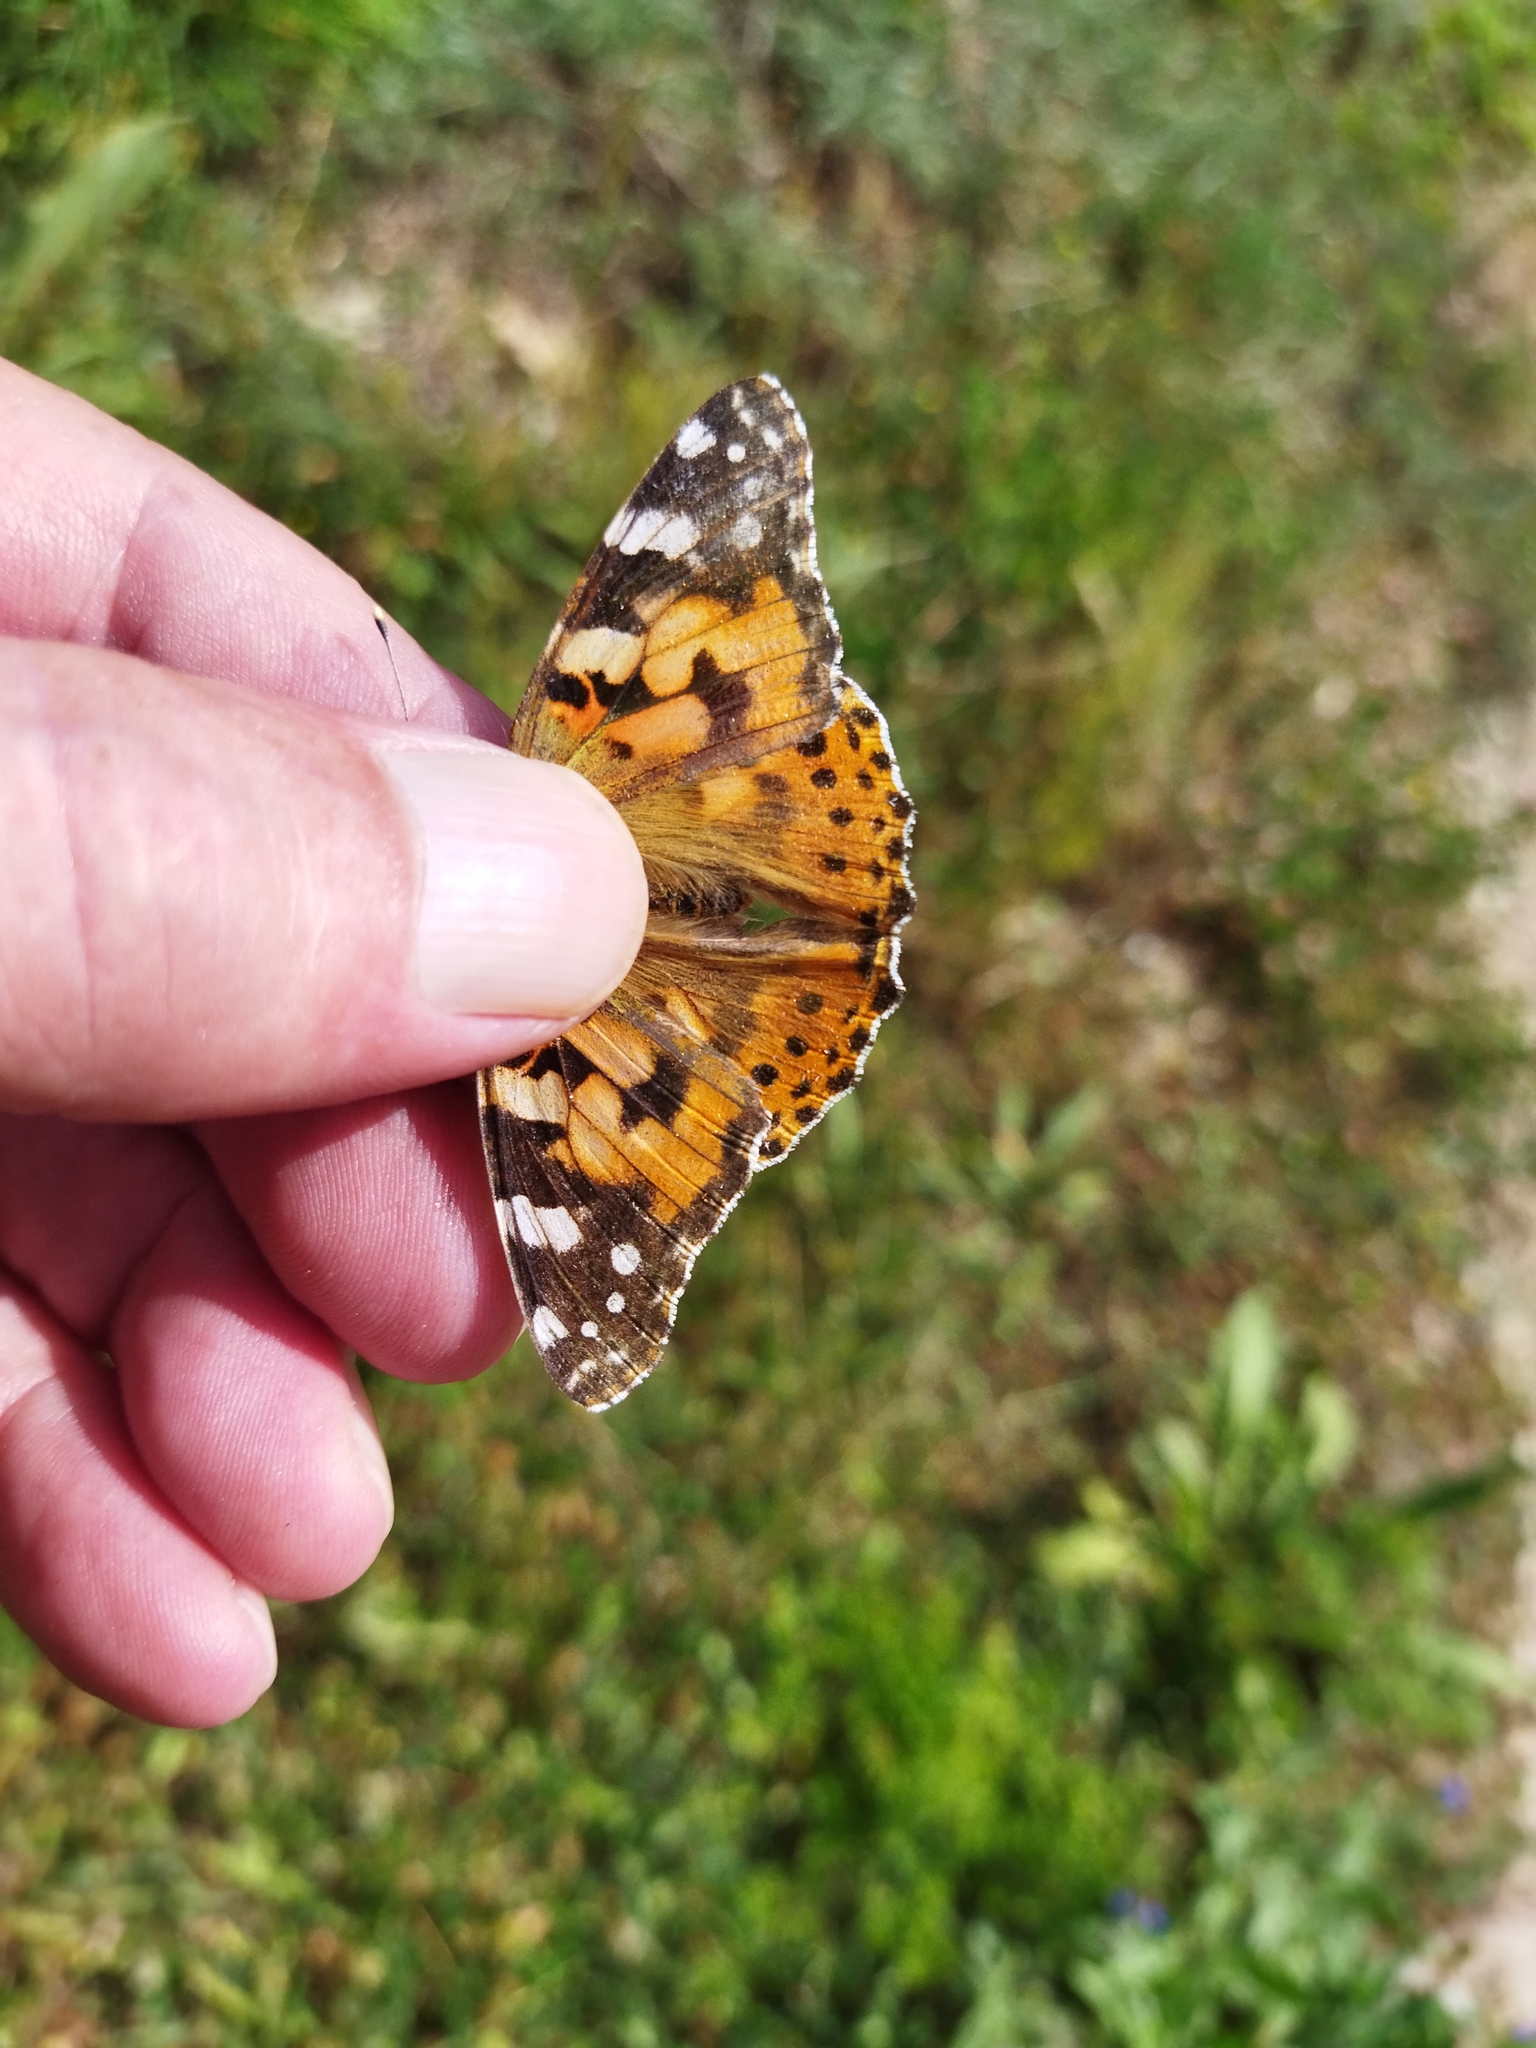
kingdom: Animalia
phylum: Arthropoda
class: Insecta
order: Lepidoptera
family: Nymphalidae
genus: Vanessa
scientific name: Vanessa cardui
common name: Painted lady
